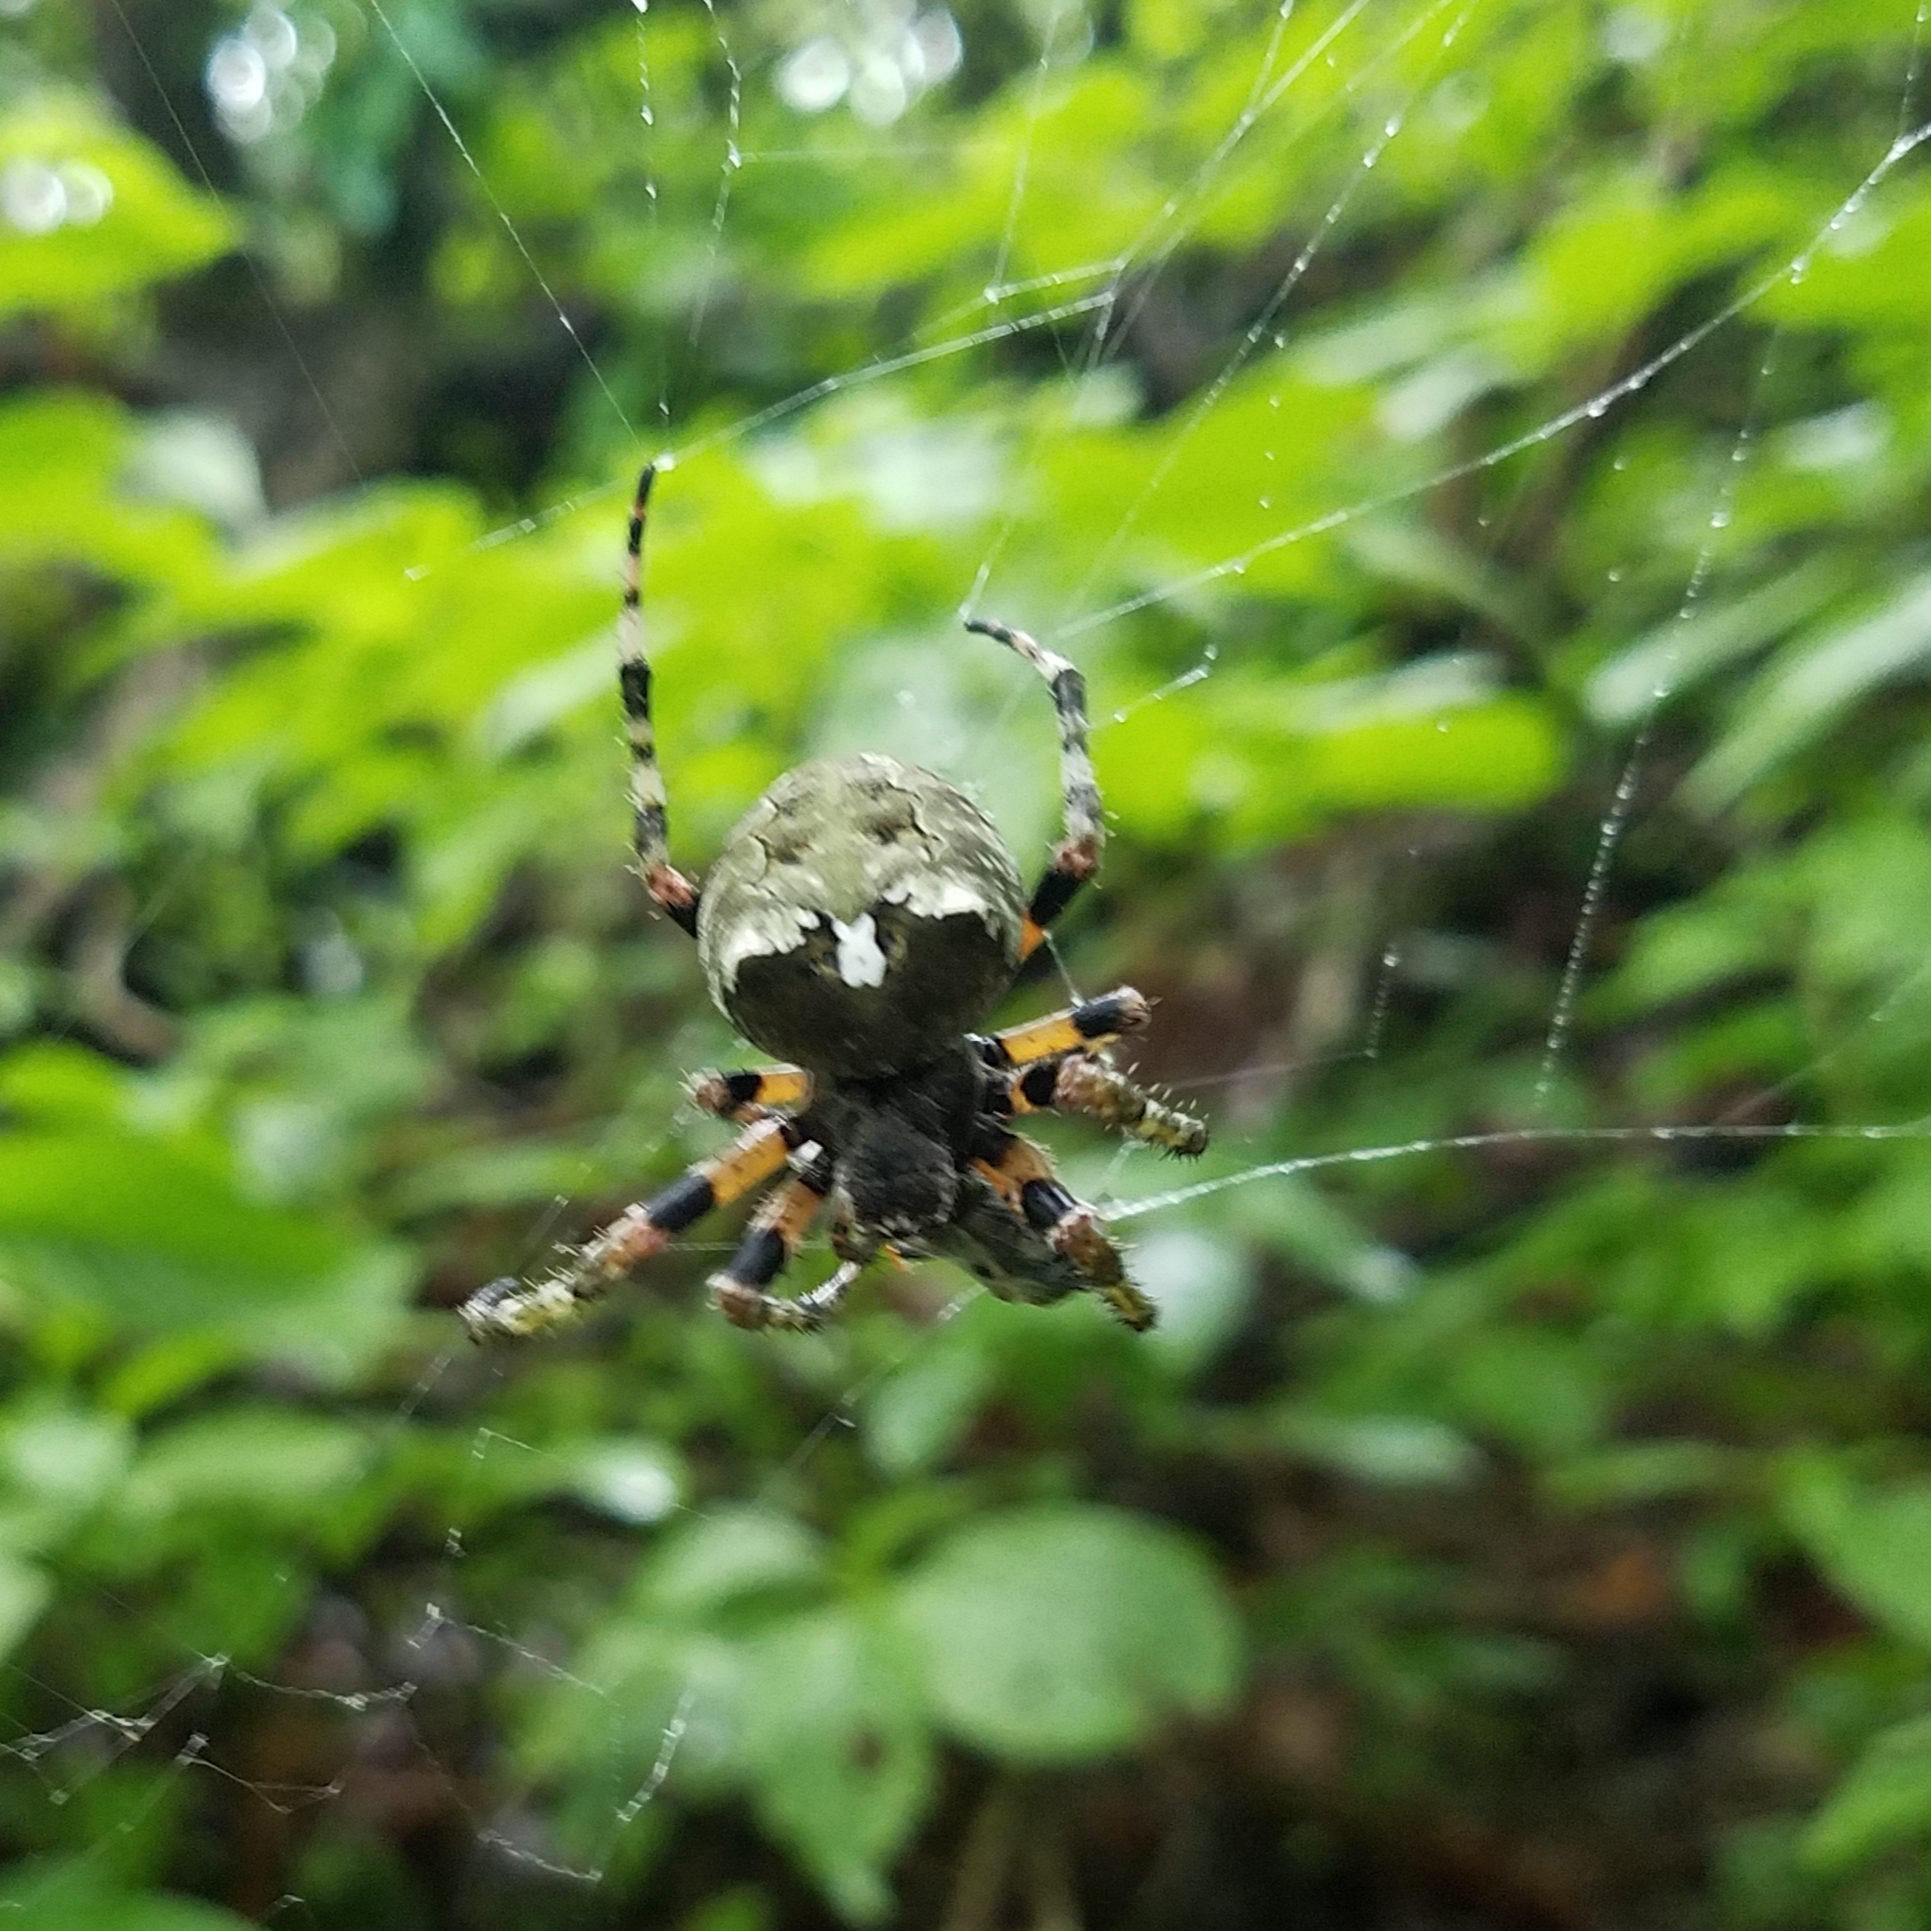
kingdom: Animalia
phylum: Arthropoda
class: Arachnida
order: Araneae
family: Araneidae
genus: Araneus
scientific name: Araneus bicentenarius
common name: Giant lichen orbweaver
